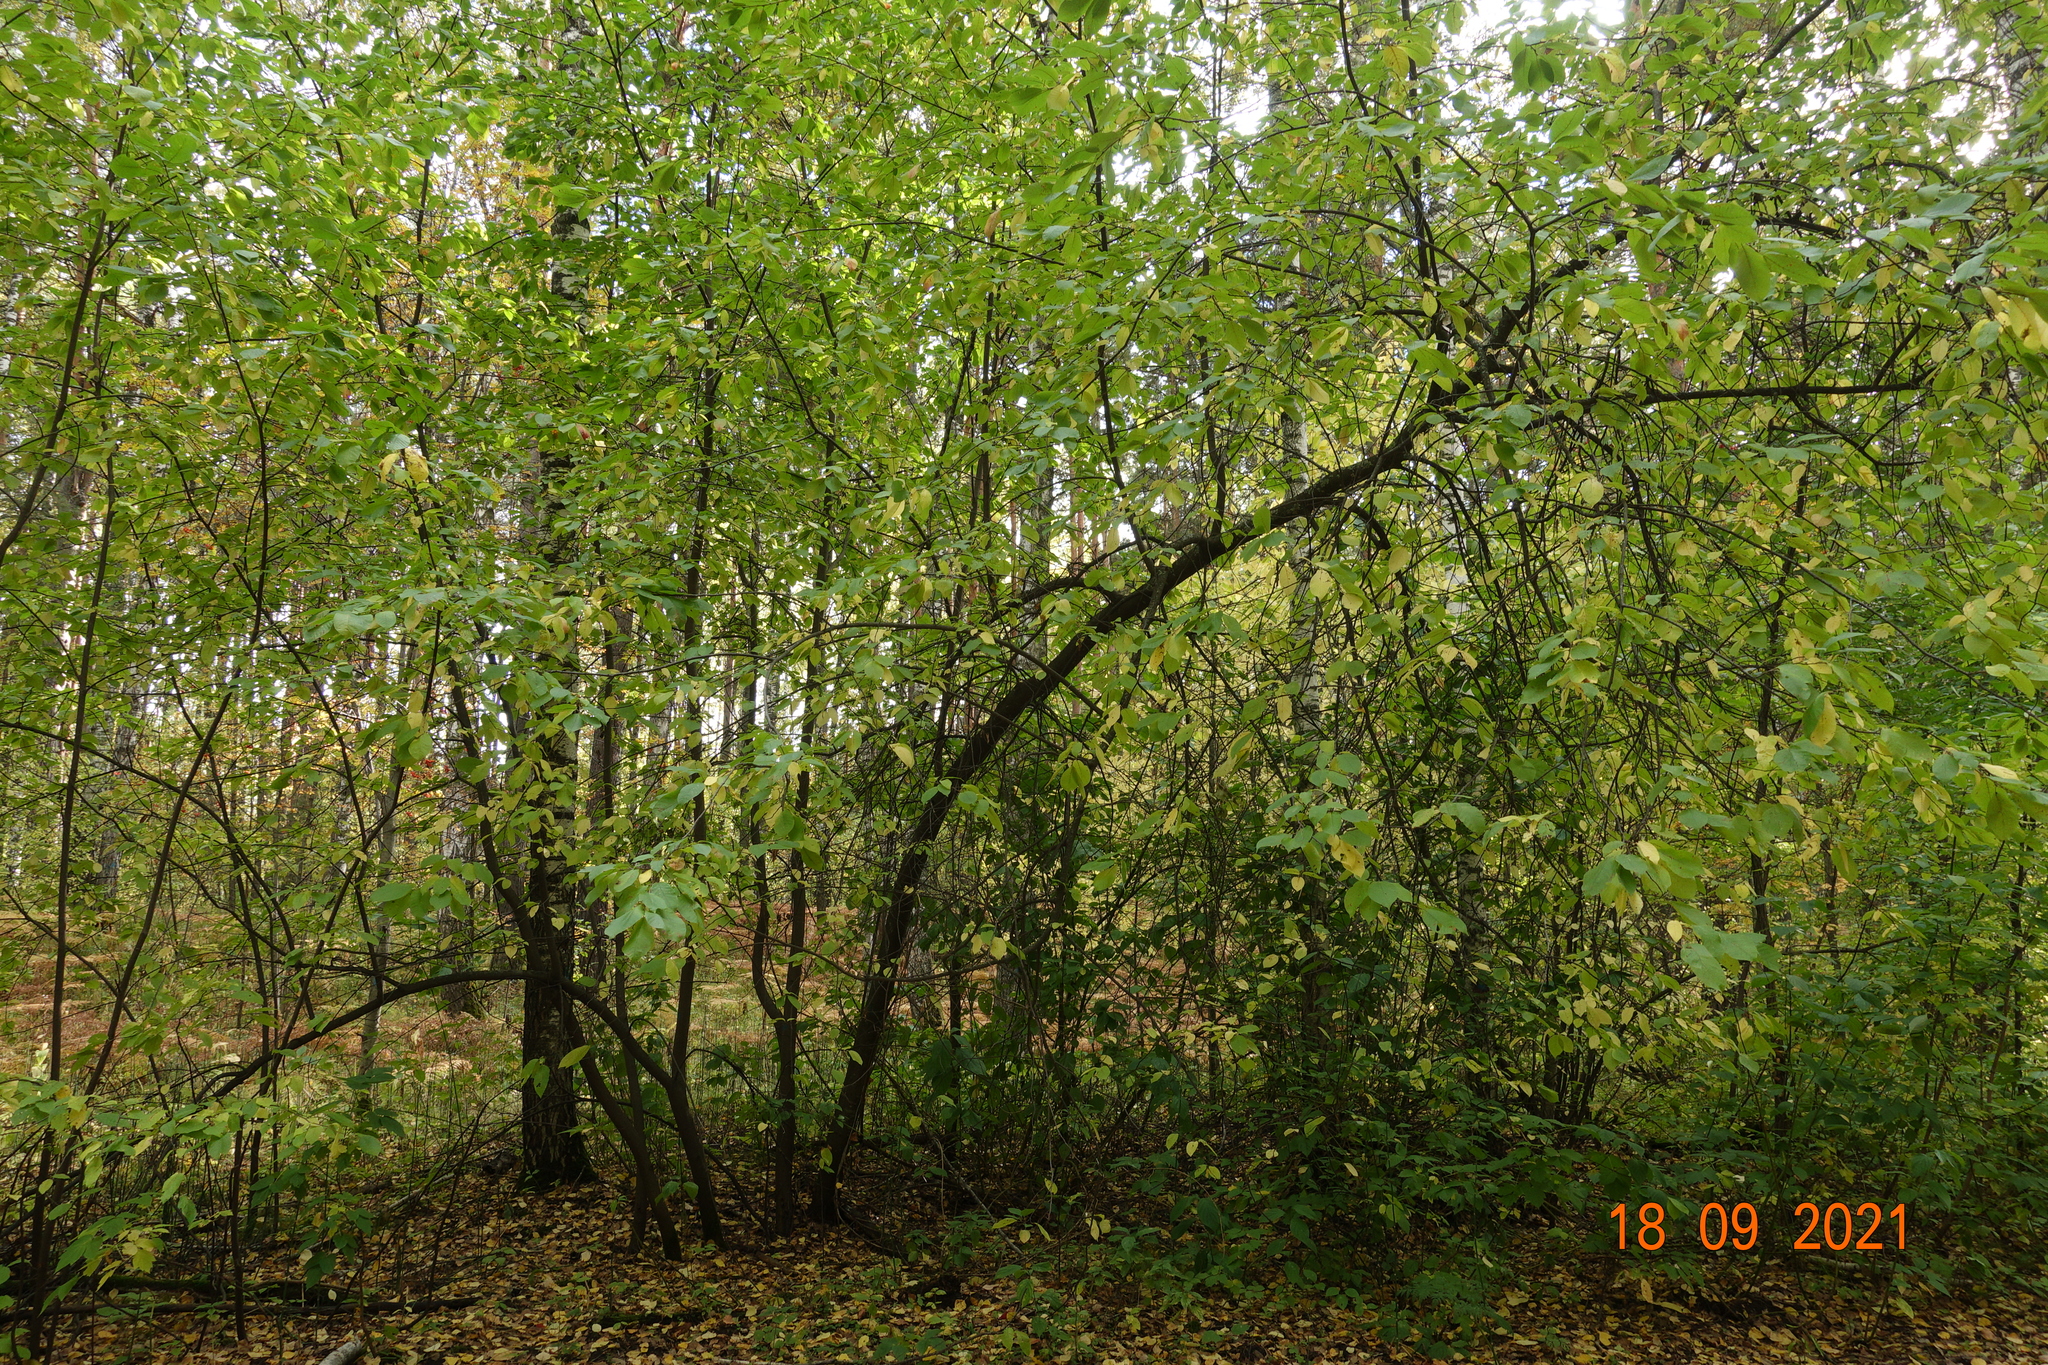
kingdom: Plantae
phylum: Tracheophyta
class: Magnoliopsida
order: Rosales
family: Rosaceae
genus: Prunus
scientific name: Prunus padus
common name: Bird cherry
